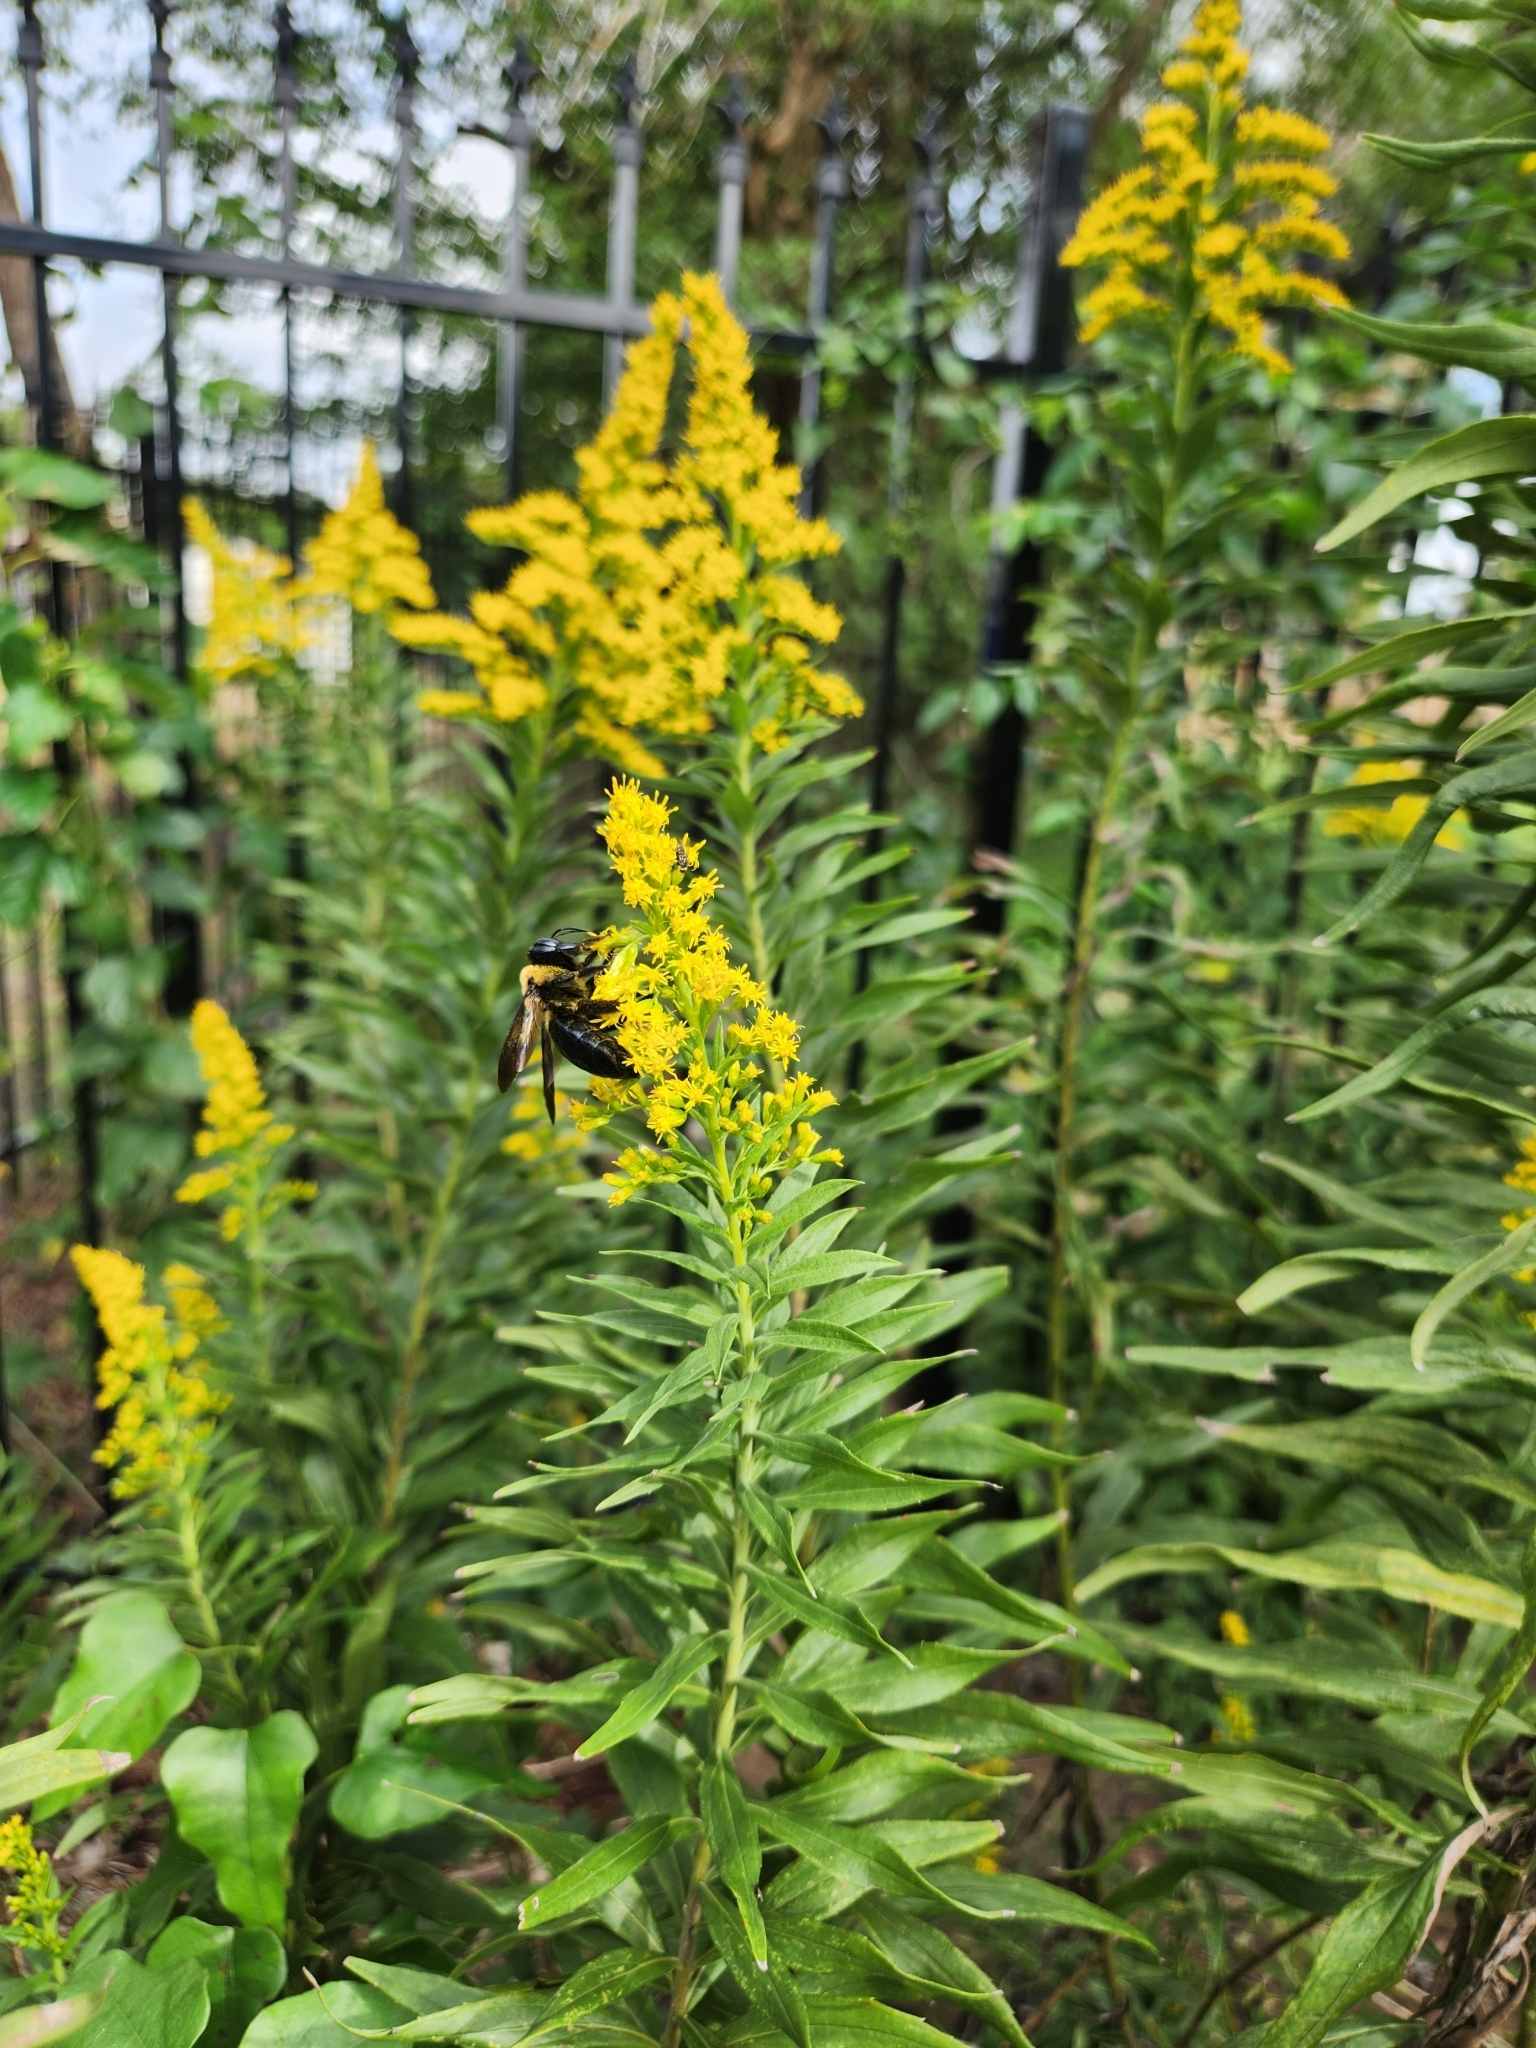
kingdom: Animalia
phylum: Arthropoda
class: Insecta
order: Hymenoptera
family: Apidae
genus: Xylocopa
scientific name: Xylocopa virginica
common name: Carpenter bee
